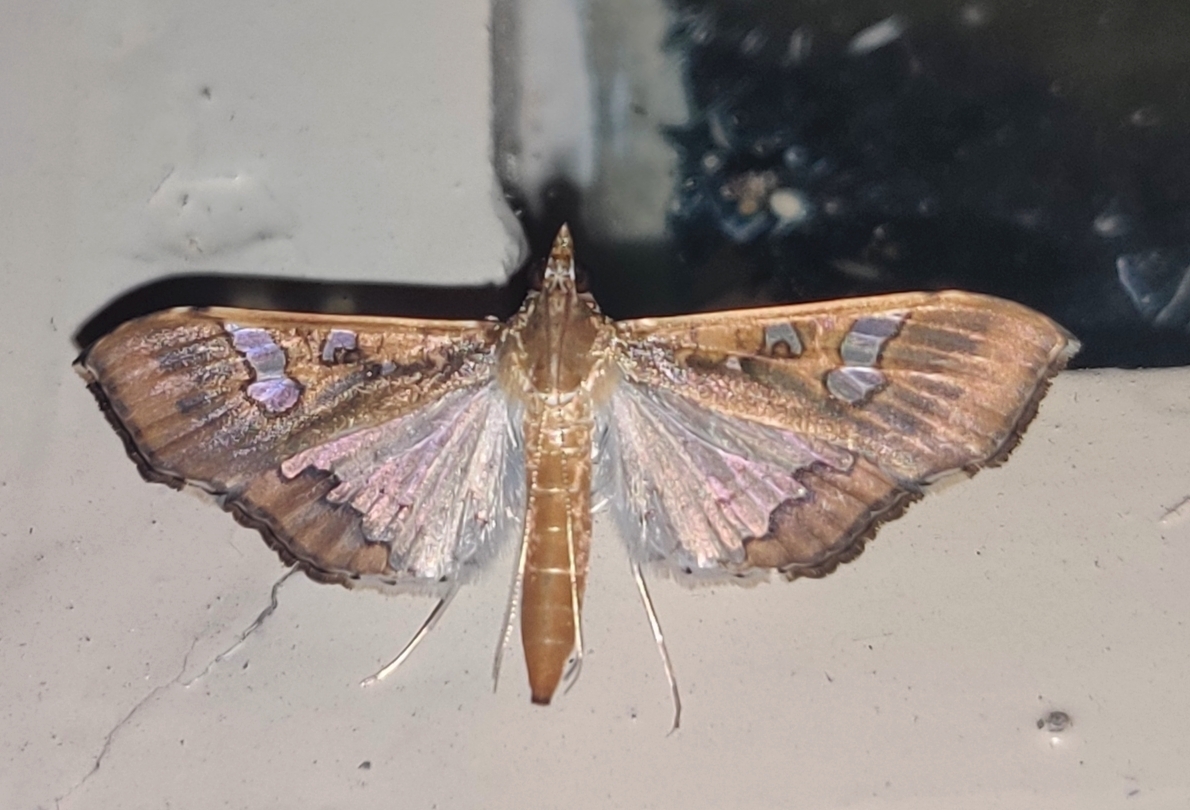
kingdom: Animalia
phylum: Arthropoda
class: Insecta
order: Lepidoptera
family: Crambidae
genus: Maruca
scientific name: Maruca vitrata
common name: Maruca pod borer
